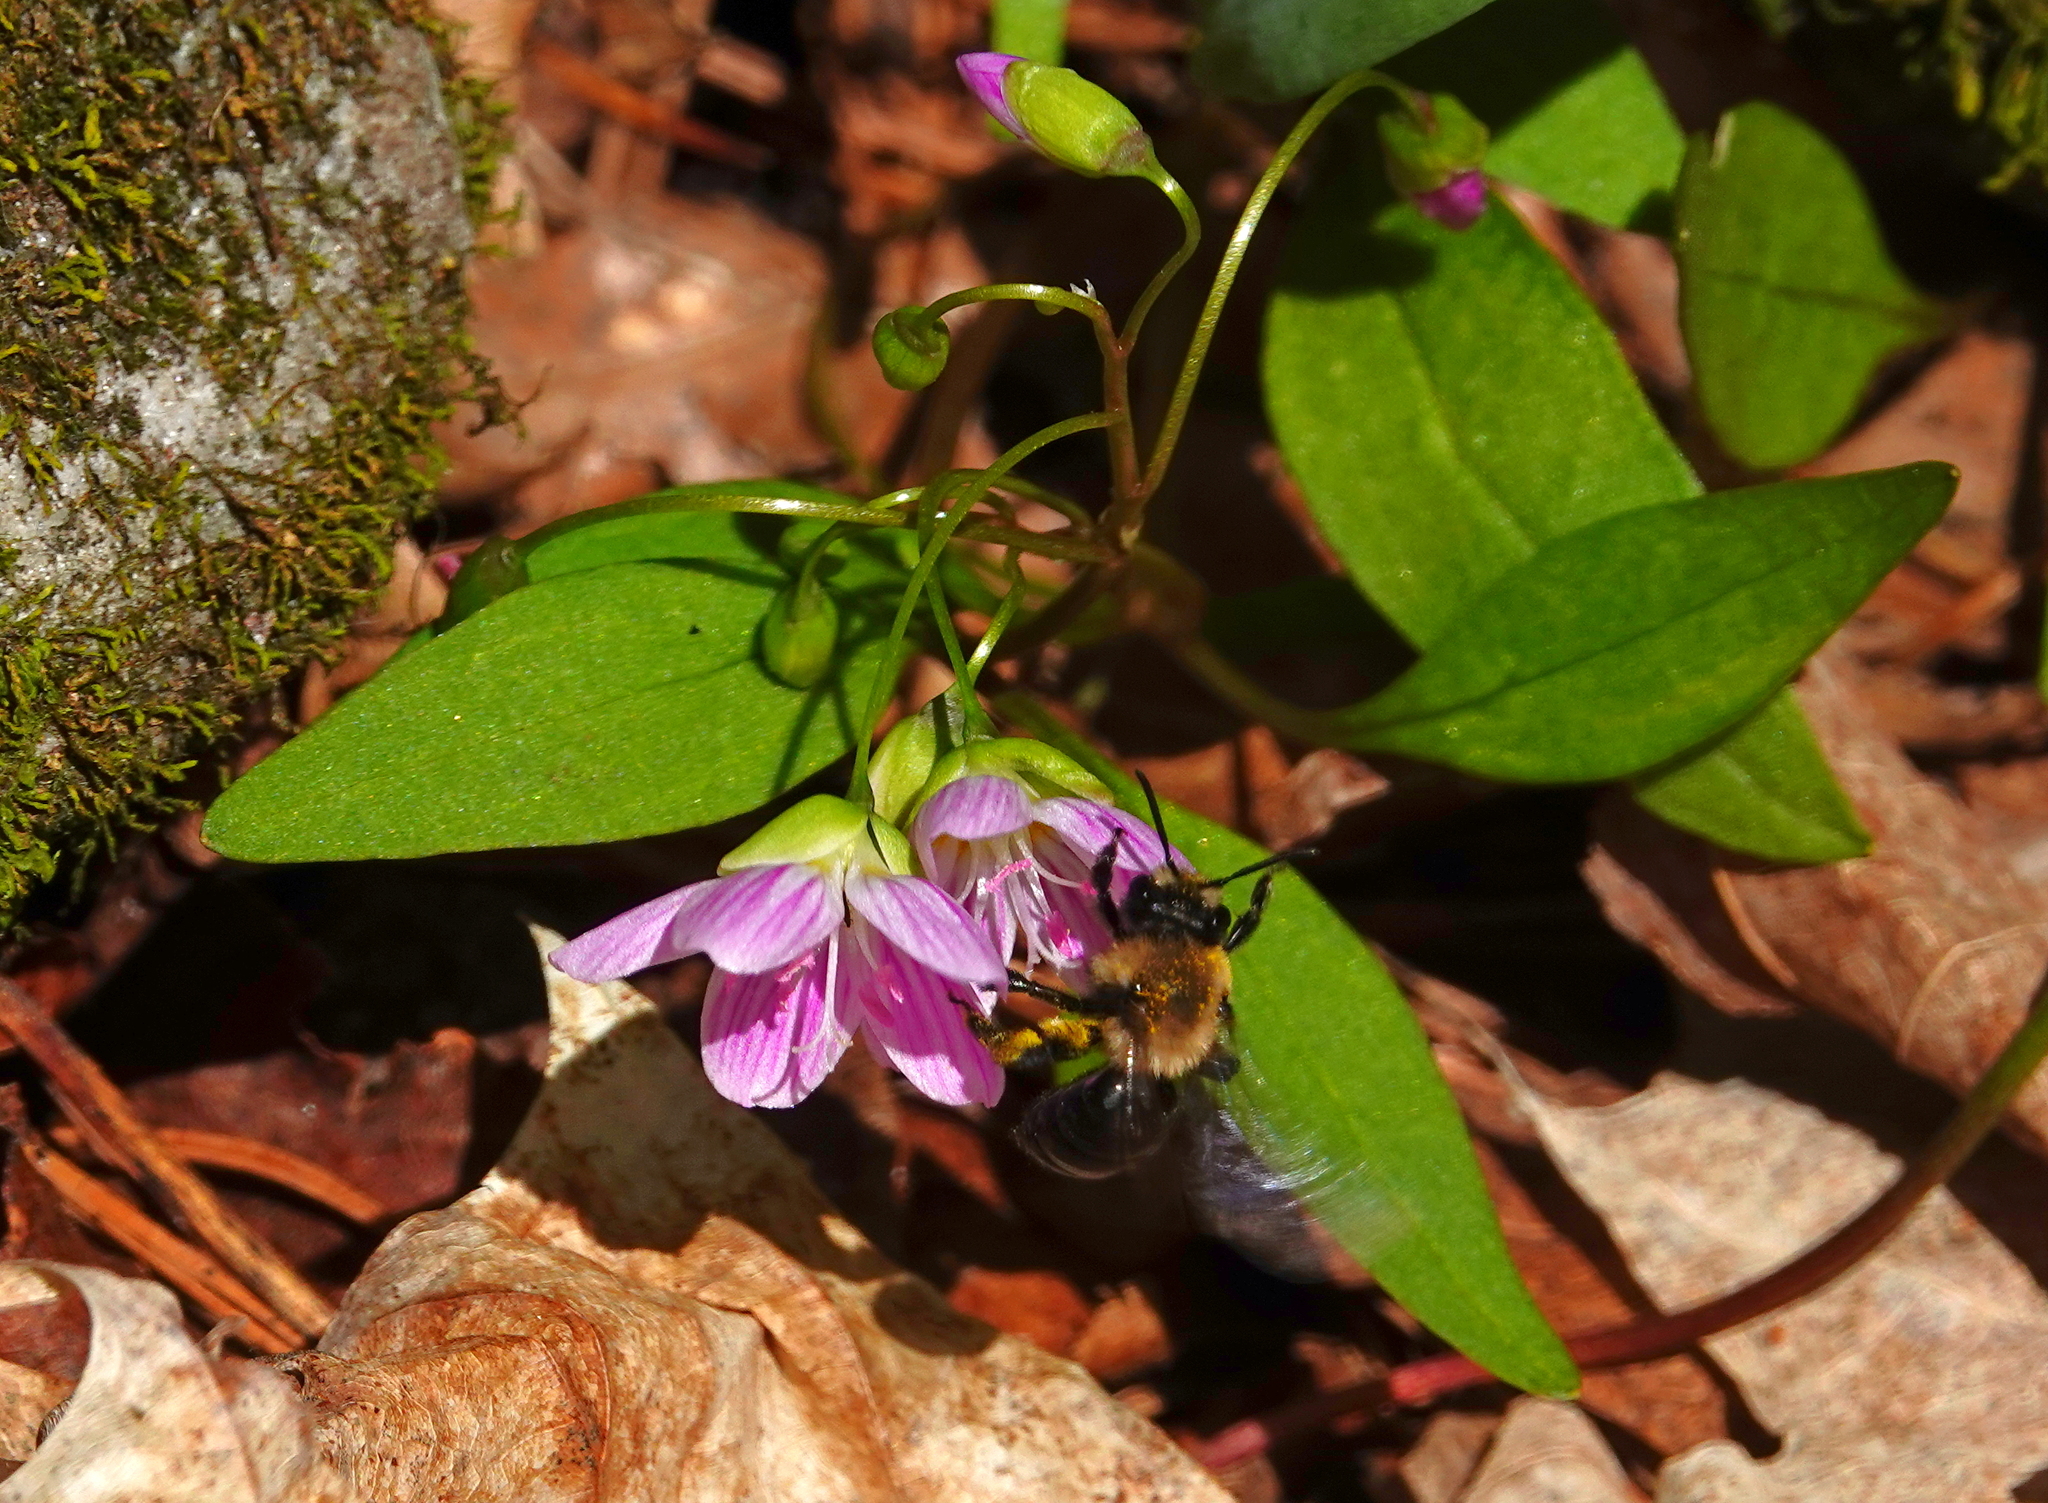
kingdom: Plantae
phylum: Tracheophyta
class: Magnoliopsida
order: Caryophyllales
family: Montiaceae
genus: Claytonia
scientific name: Claytonia caroliniana
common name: Carolina spring beauty
